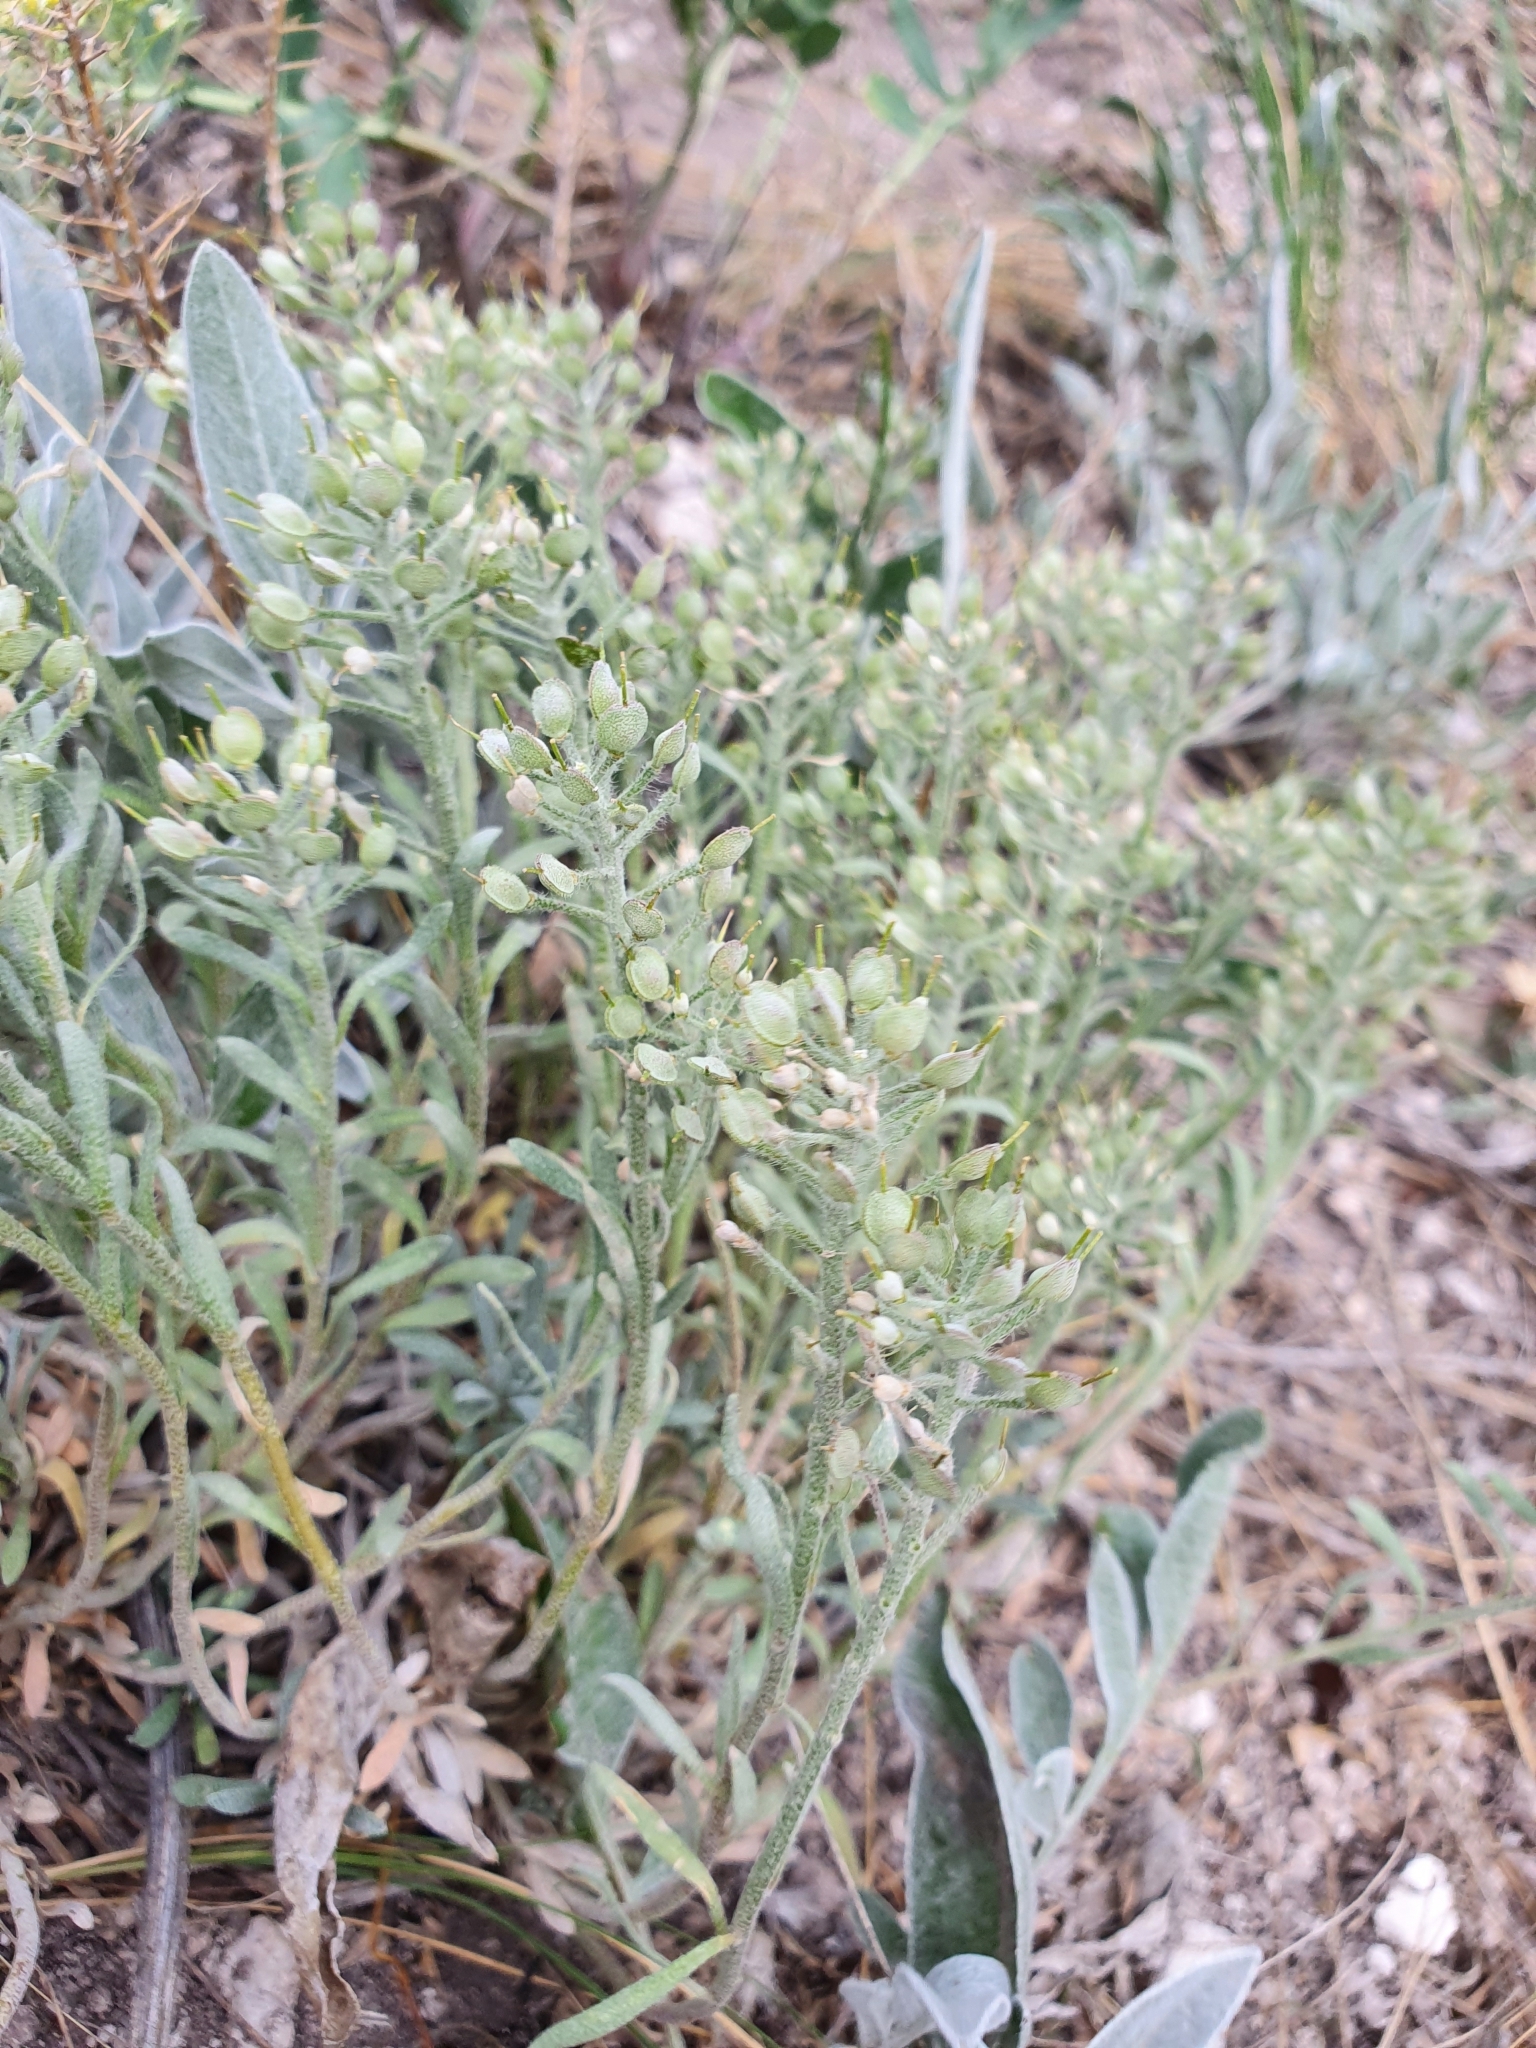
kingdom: Plantae
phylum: Tracheophyta
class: Magnoliopsida
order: Brassicales
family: Brassicaceae
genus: Alyssum
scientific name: Alyssum lenense
